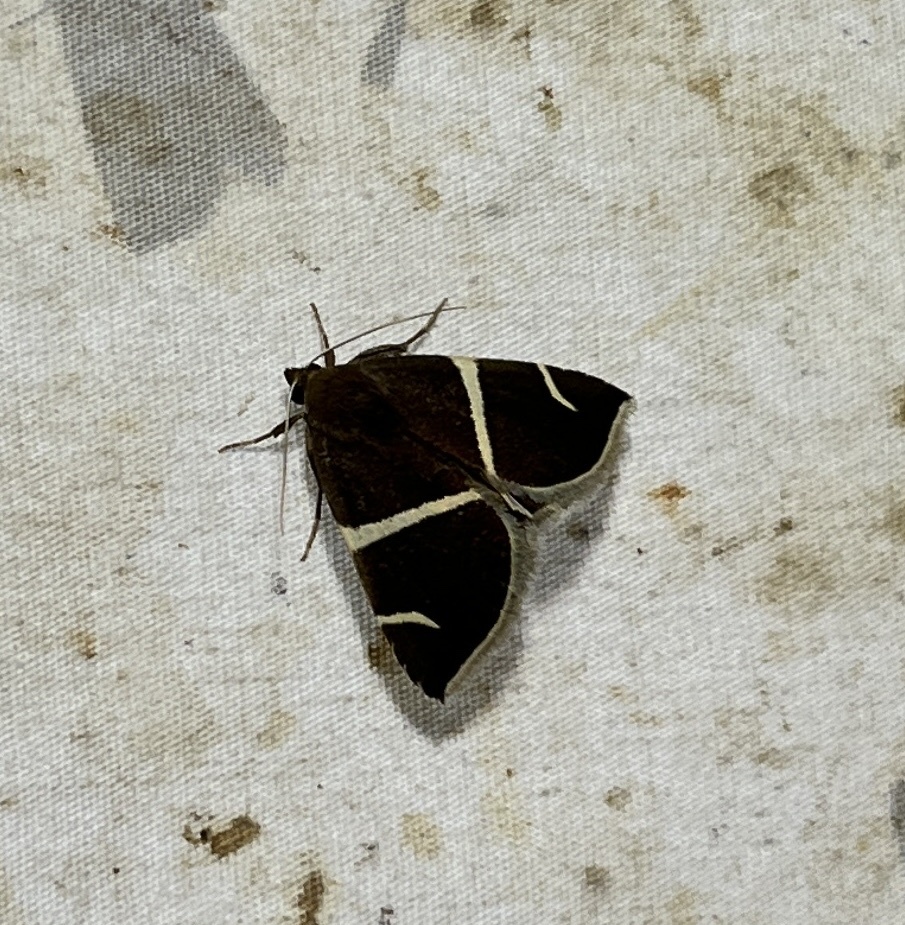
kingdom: Animalia
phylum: Arthropoda
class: Insecta
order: Lepidoptera
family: Erebidae
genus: Argyrostrotis
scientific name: Argyrostrotis anilis
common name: Short-lined chocolate
